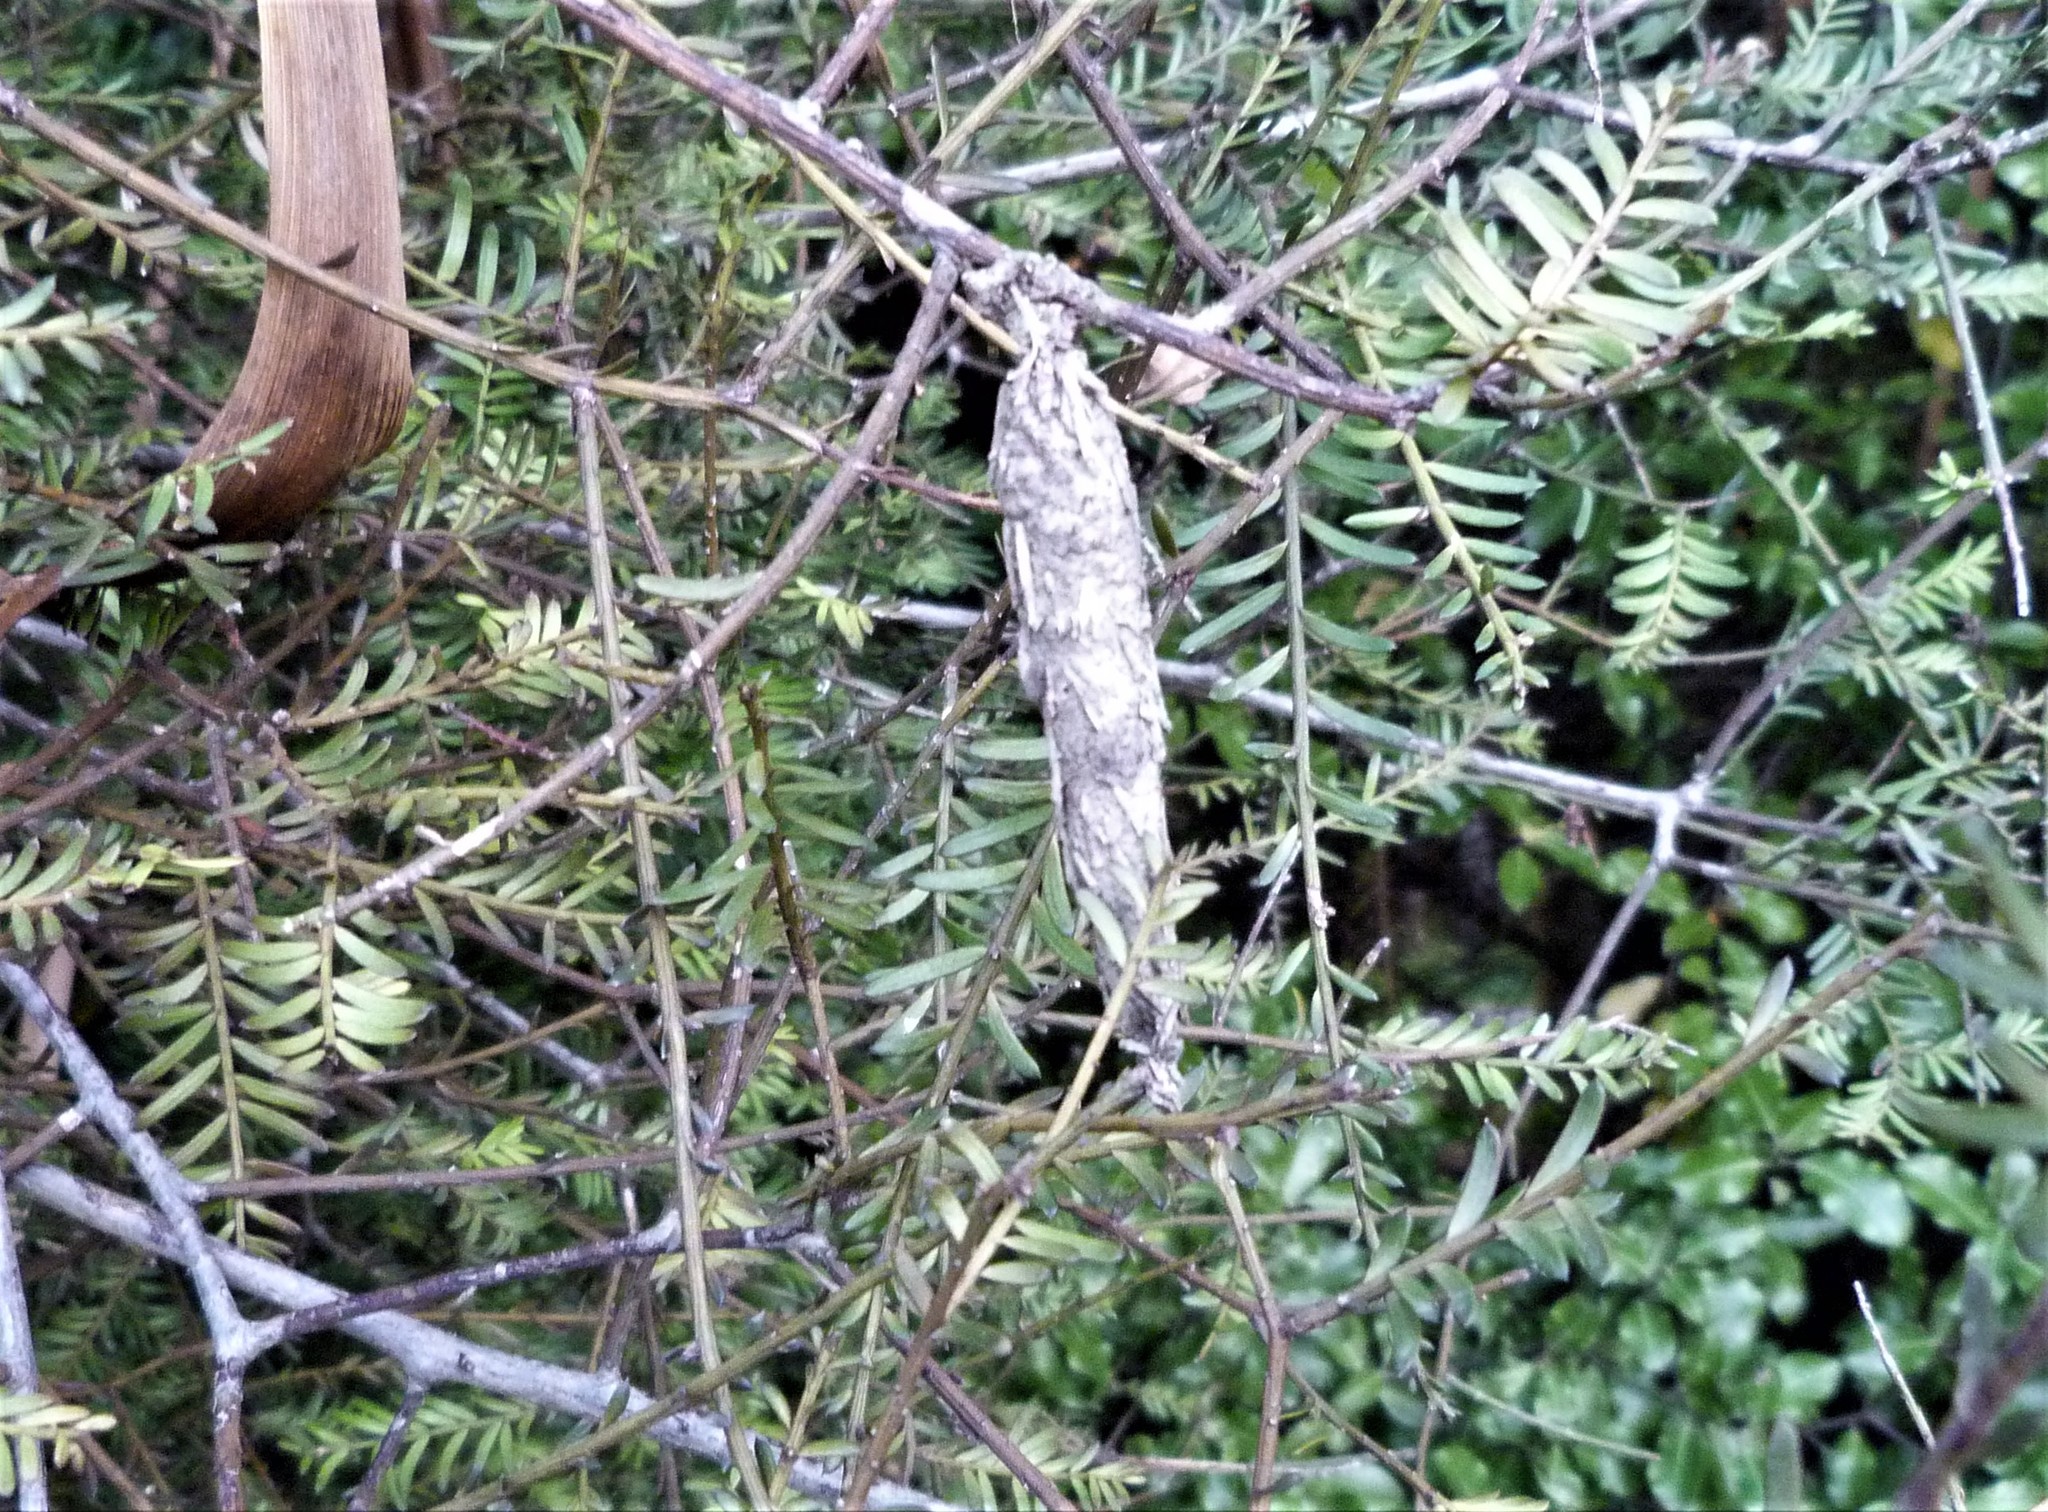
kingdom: Animalia
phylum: Arthropoda
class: Insecta
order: Lepidoptera
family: Psychidae
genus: Liothula
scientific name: Liothula omnivora
